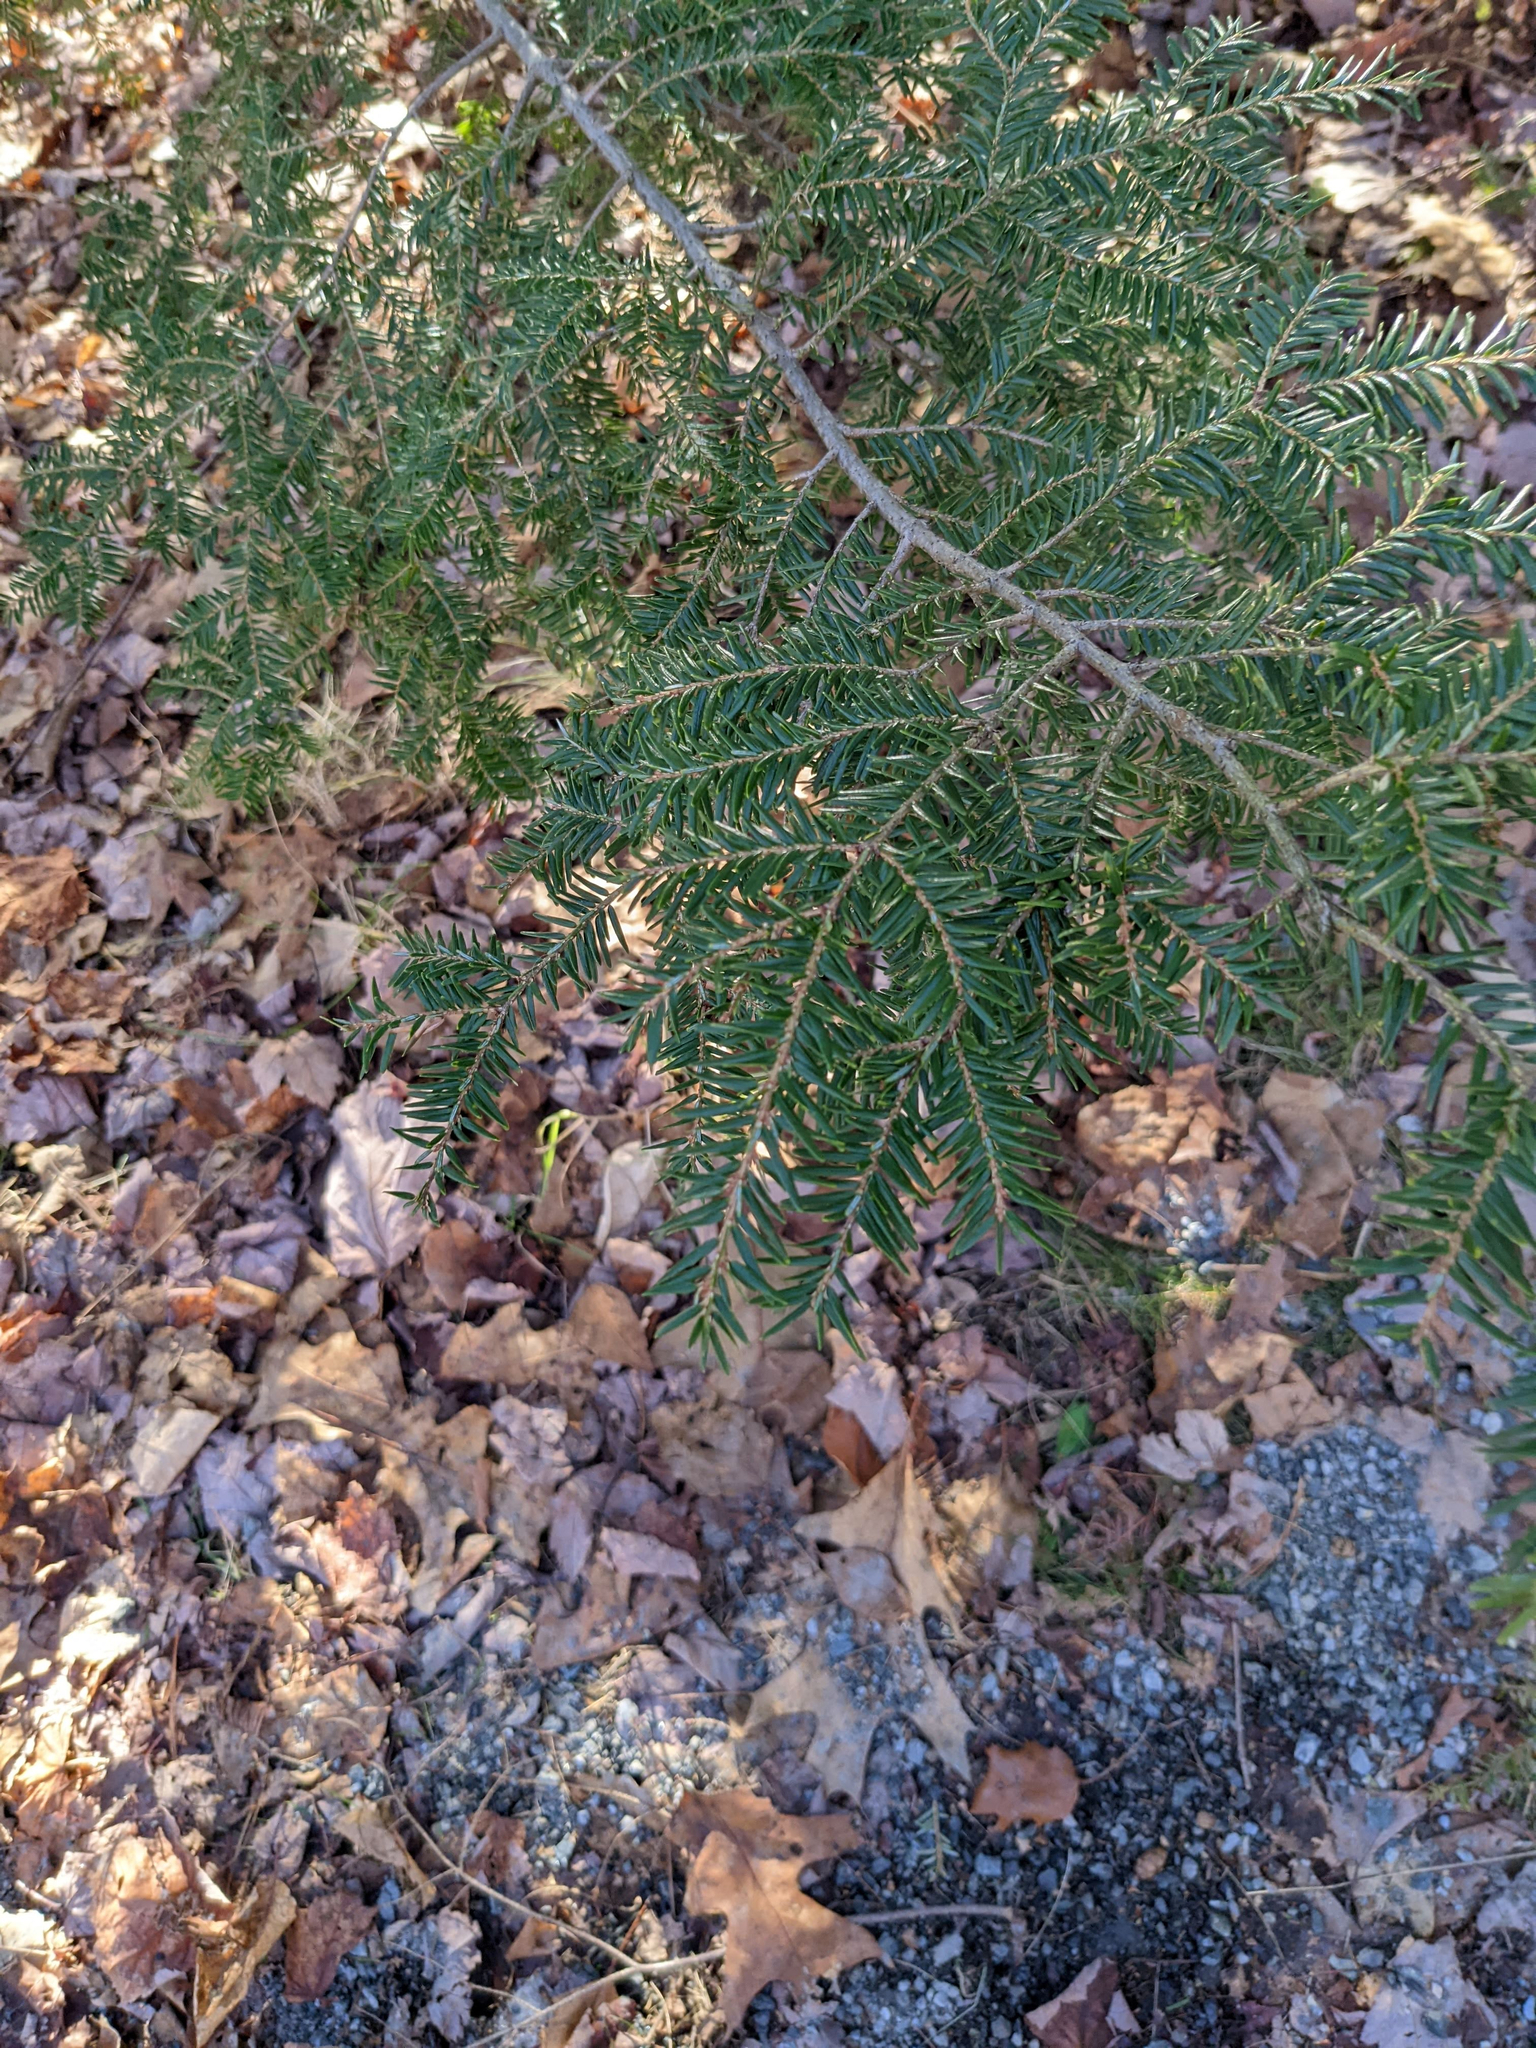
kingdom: Plantae
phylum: Tracheophyta
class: Pinopsida
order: Pinales
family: Pinaceae
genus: Tsuga
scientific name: Tsuga canadensis
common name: Eastern hemlock
